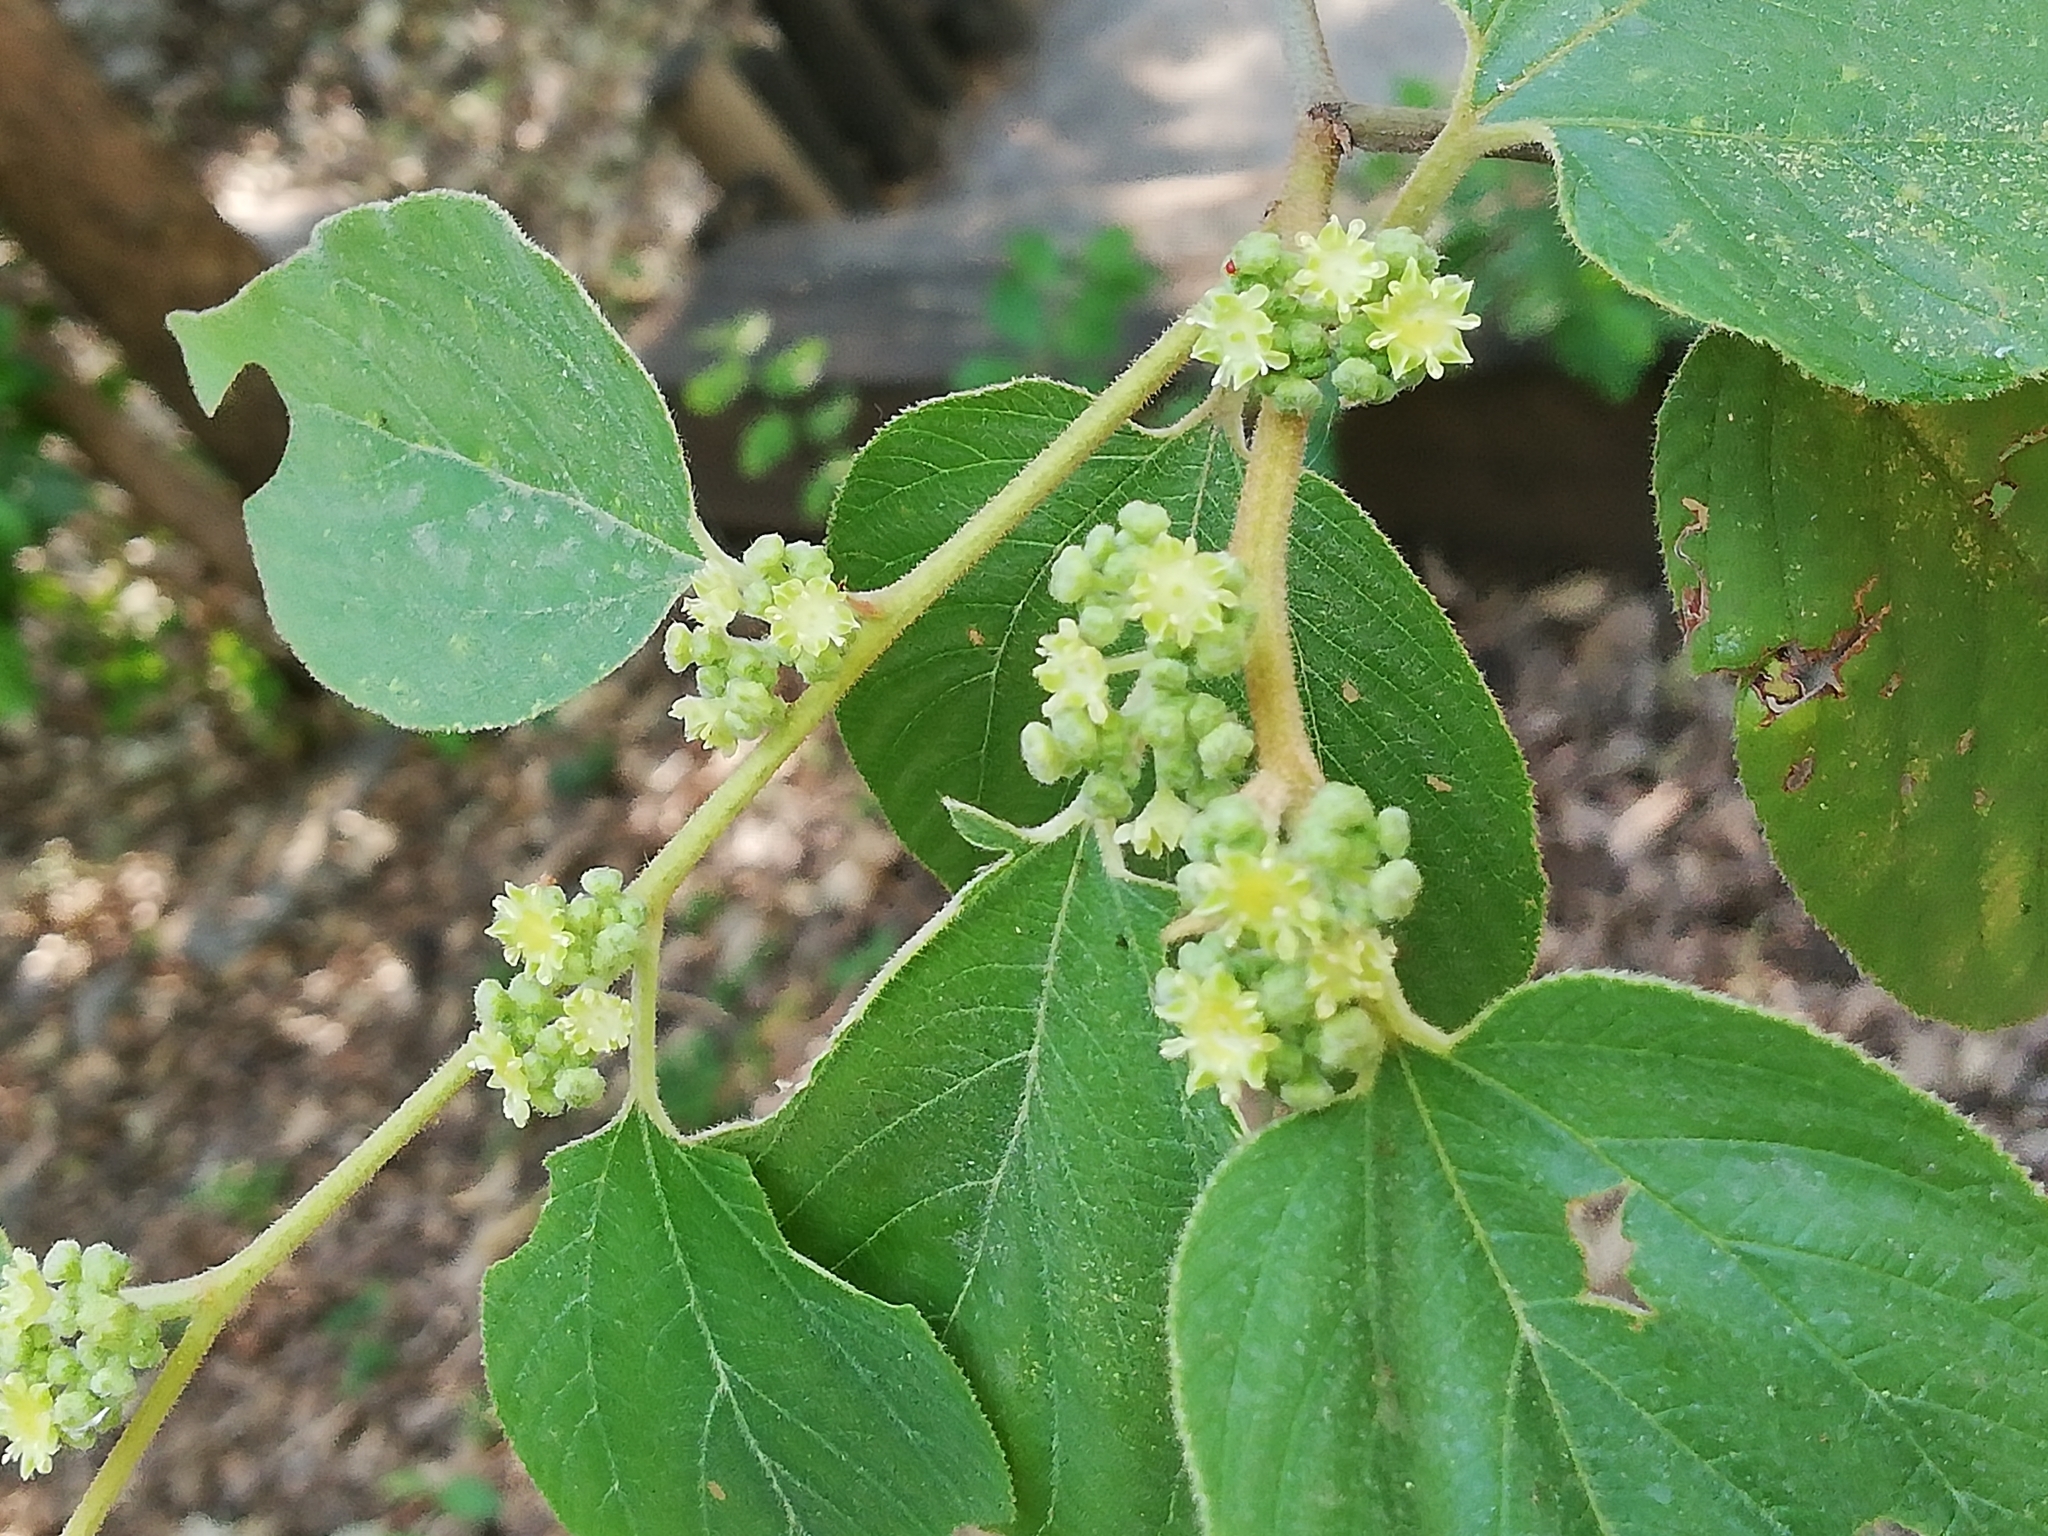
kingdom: Plantae
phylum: Tracheophyta
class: Magnoliopsida
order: Rosales
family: Rhamnaceae
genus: Colubrina
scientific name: Colubrina greggii
